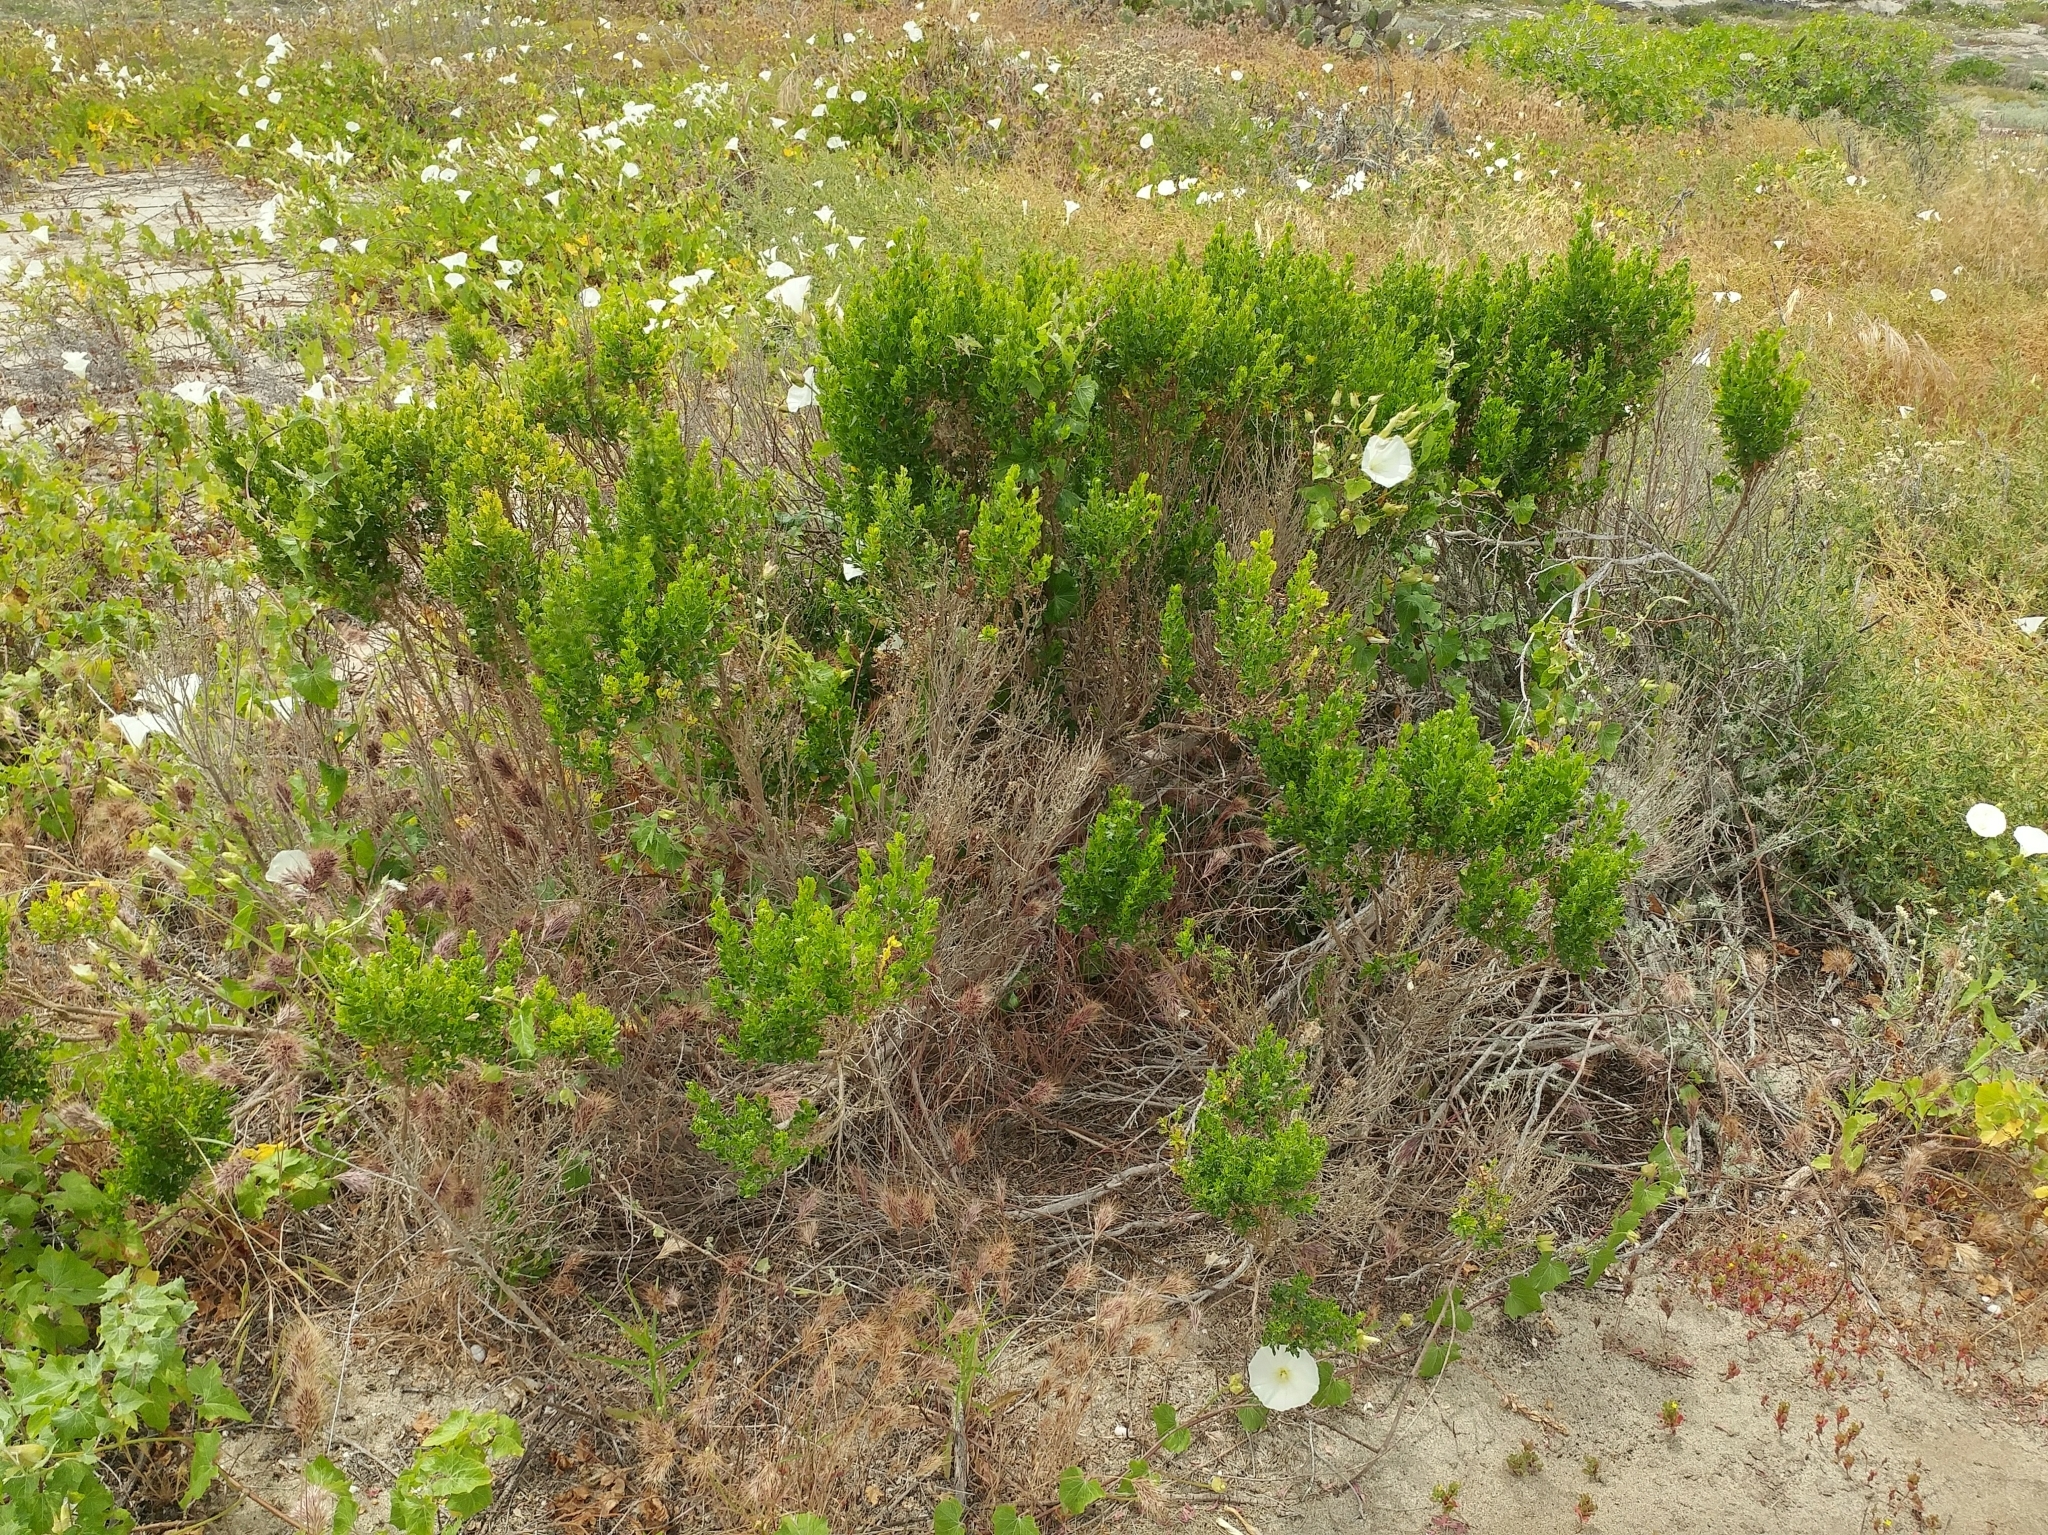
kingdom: Plantae
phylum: Tracheophyta
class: Magnoliopsida
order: Asterales
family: Asteraceae
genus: Baccharis
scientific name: Baccharis pilularis
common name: Coyotebrush
